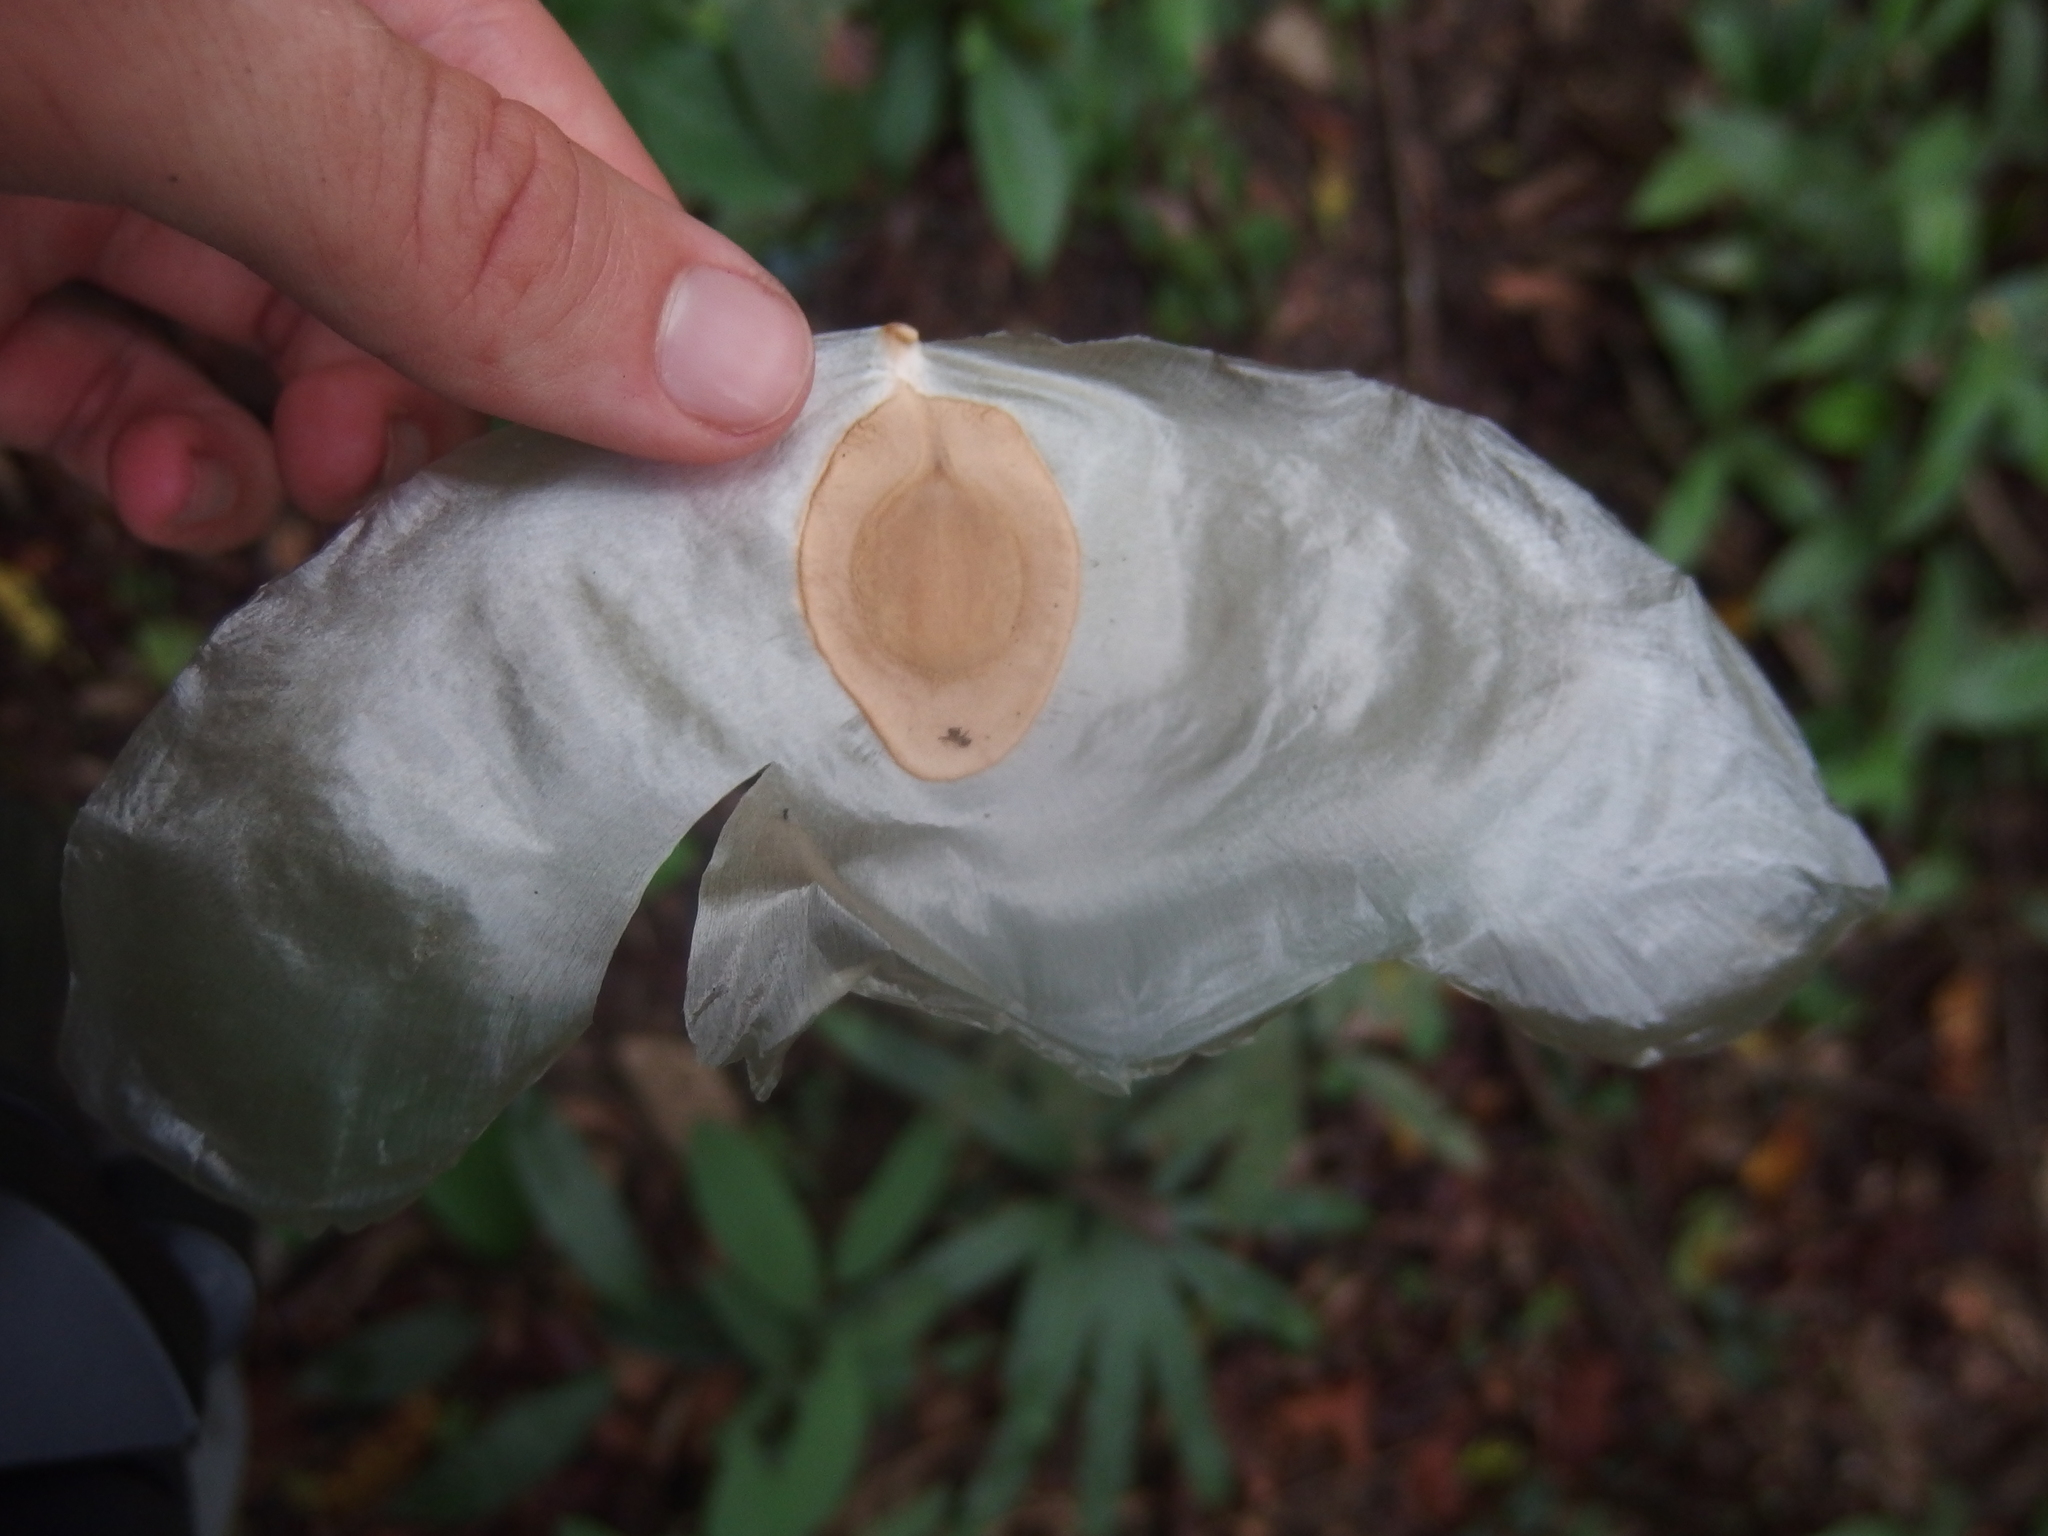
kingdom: Plantae
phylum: Tracheophyta
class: Magnoliopsida
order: Cucurbitales
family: Cucurbitaceae
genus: Alsomitra
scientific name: Alsomitra macrocarpa
